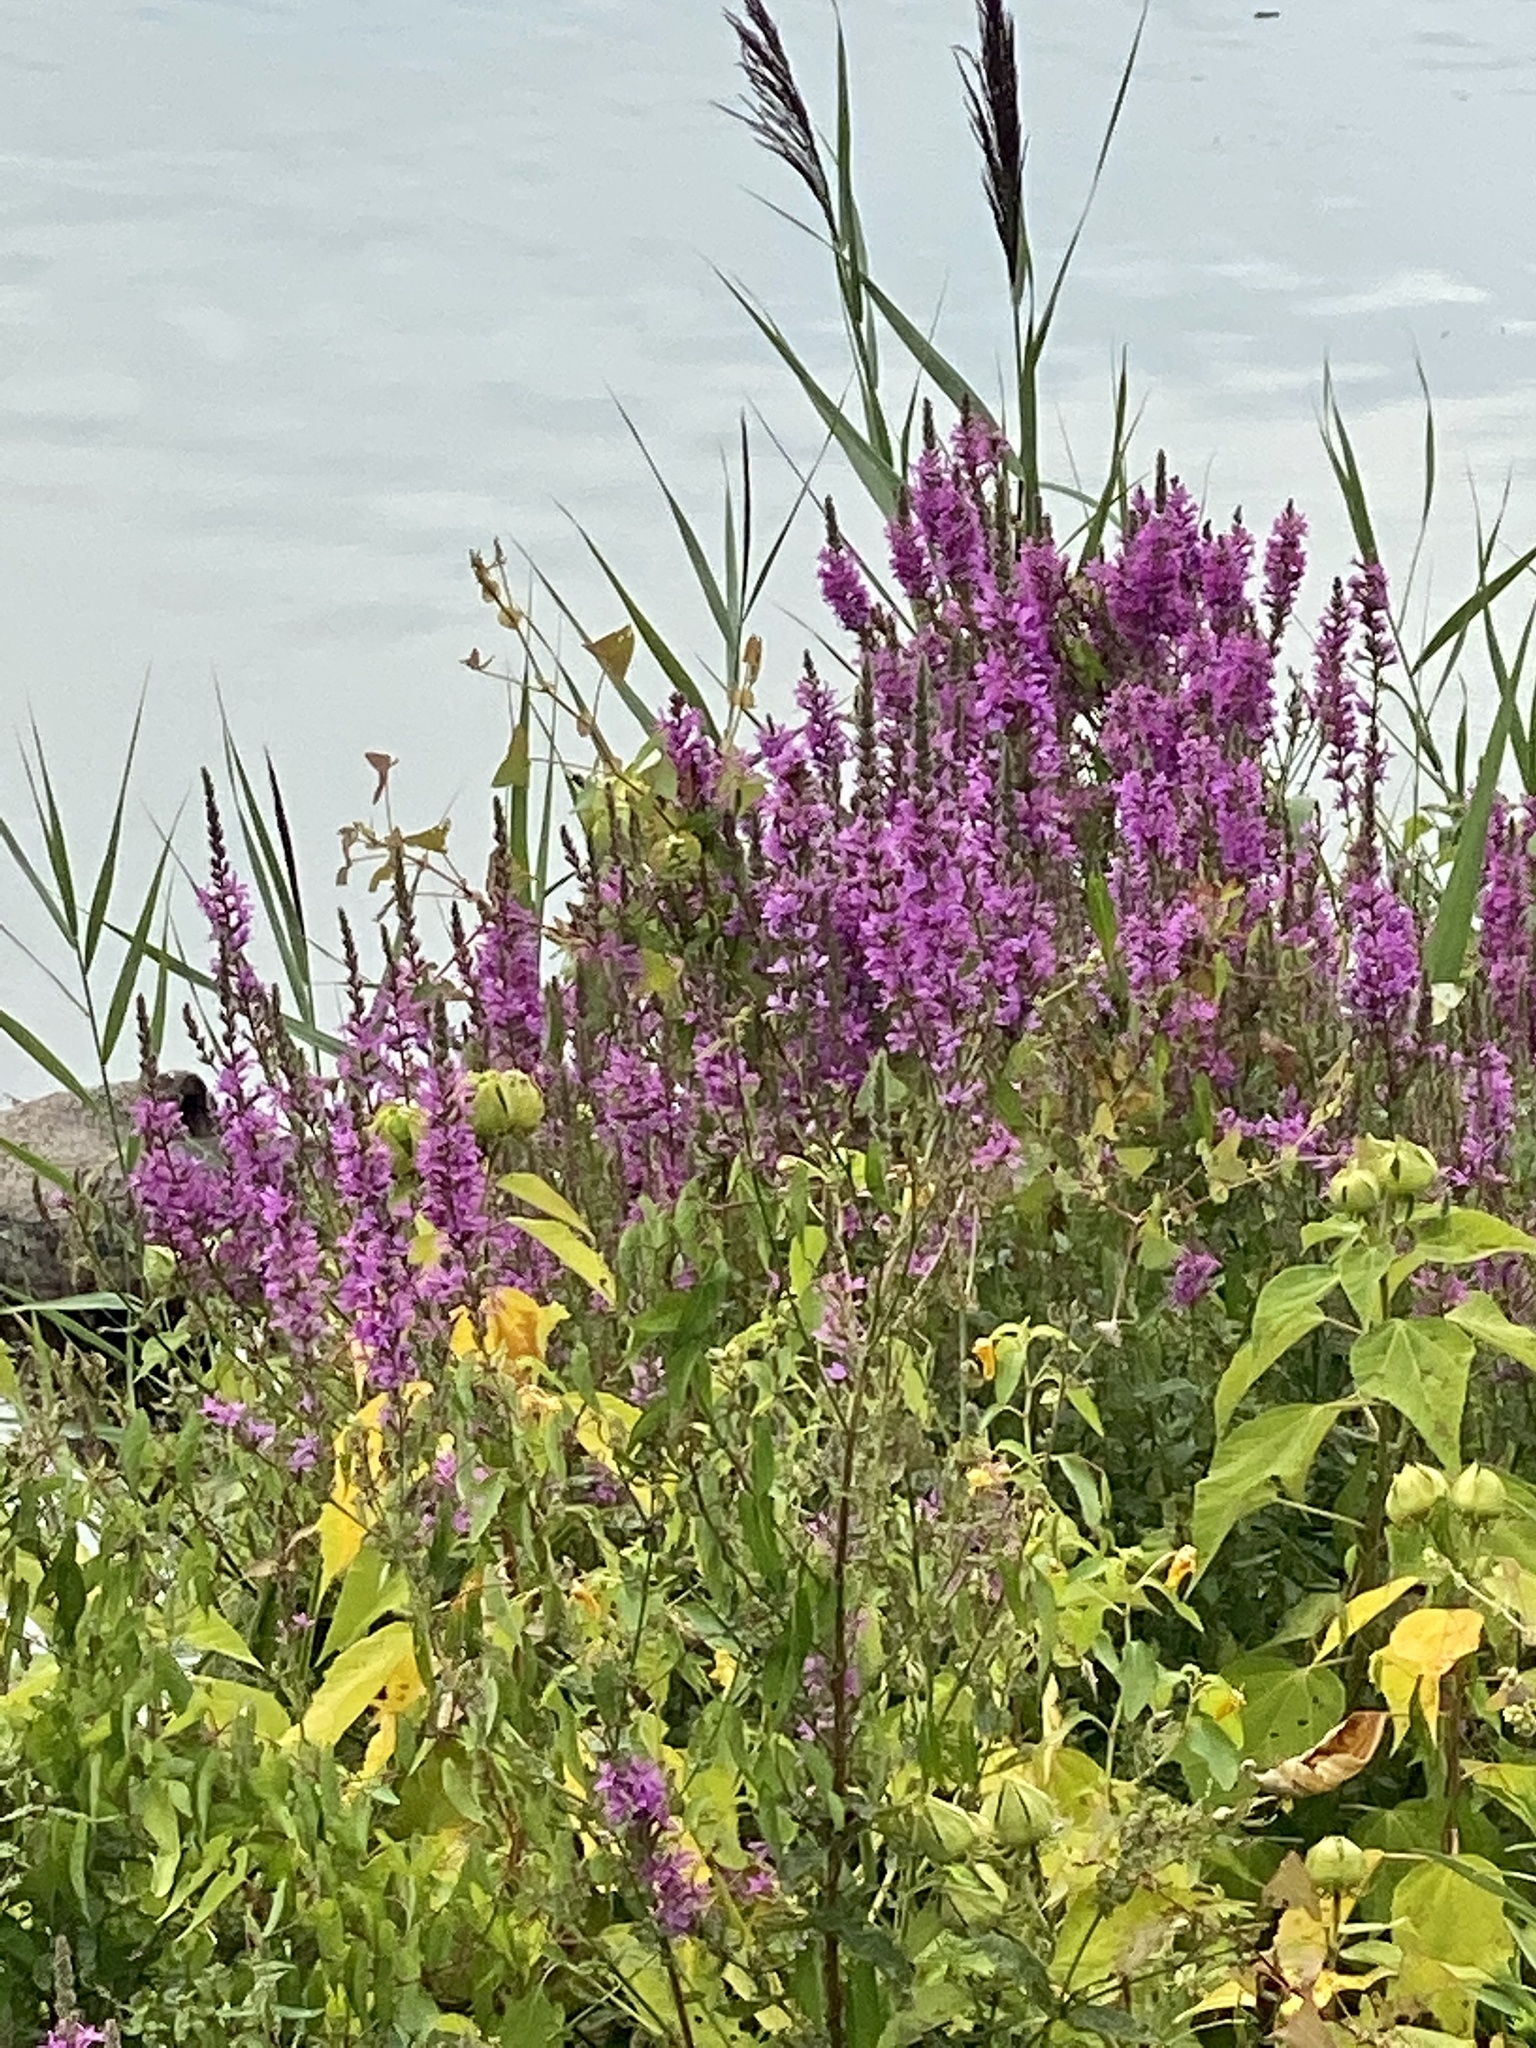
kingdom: Plantae
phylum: Tracheophyta
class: Magnoliopsida
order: Myrtales
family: Lythraceae
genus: Lythrum
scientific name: Lythrum salicaria
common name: Purple loosestrife
